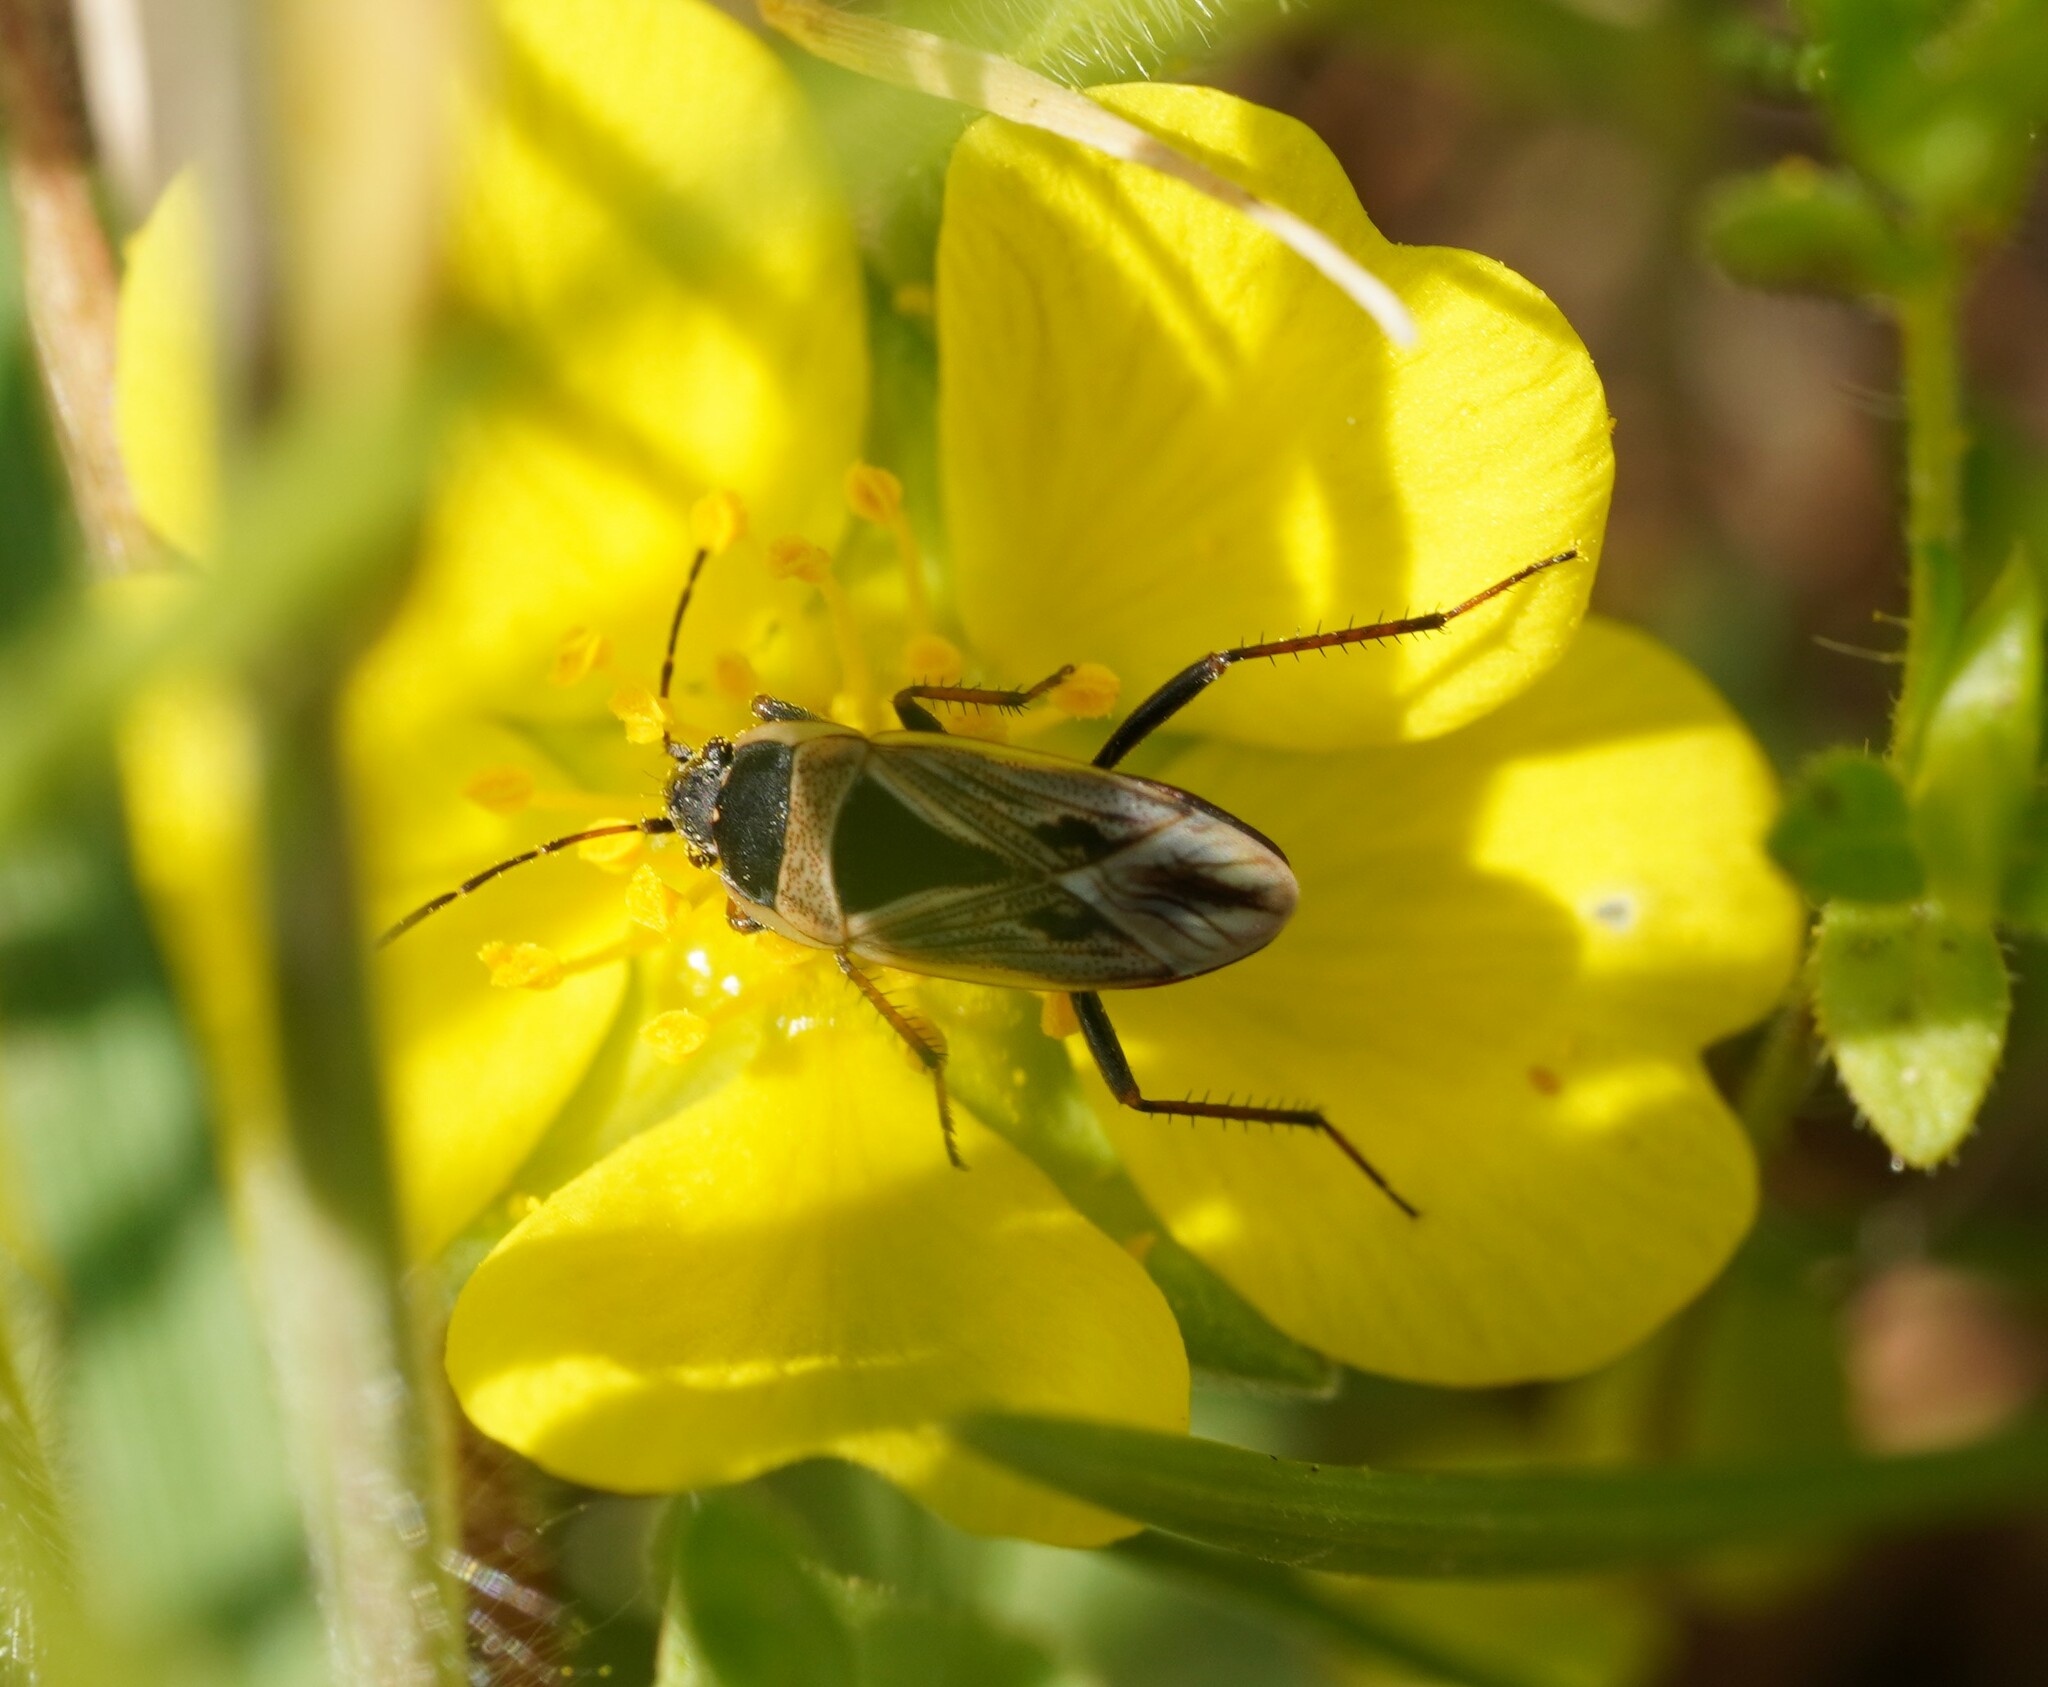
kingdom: Animalia
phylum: Arthropoda
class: Insecta
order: Hemiptera
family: Rhyparochromidae
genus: Xanthochilus
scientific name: Xanthochilus quadratus
